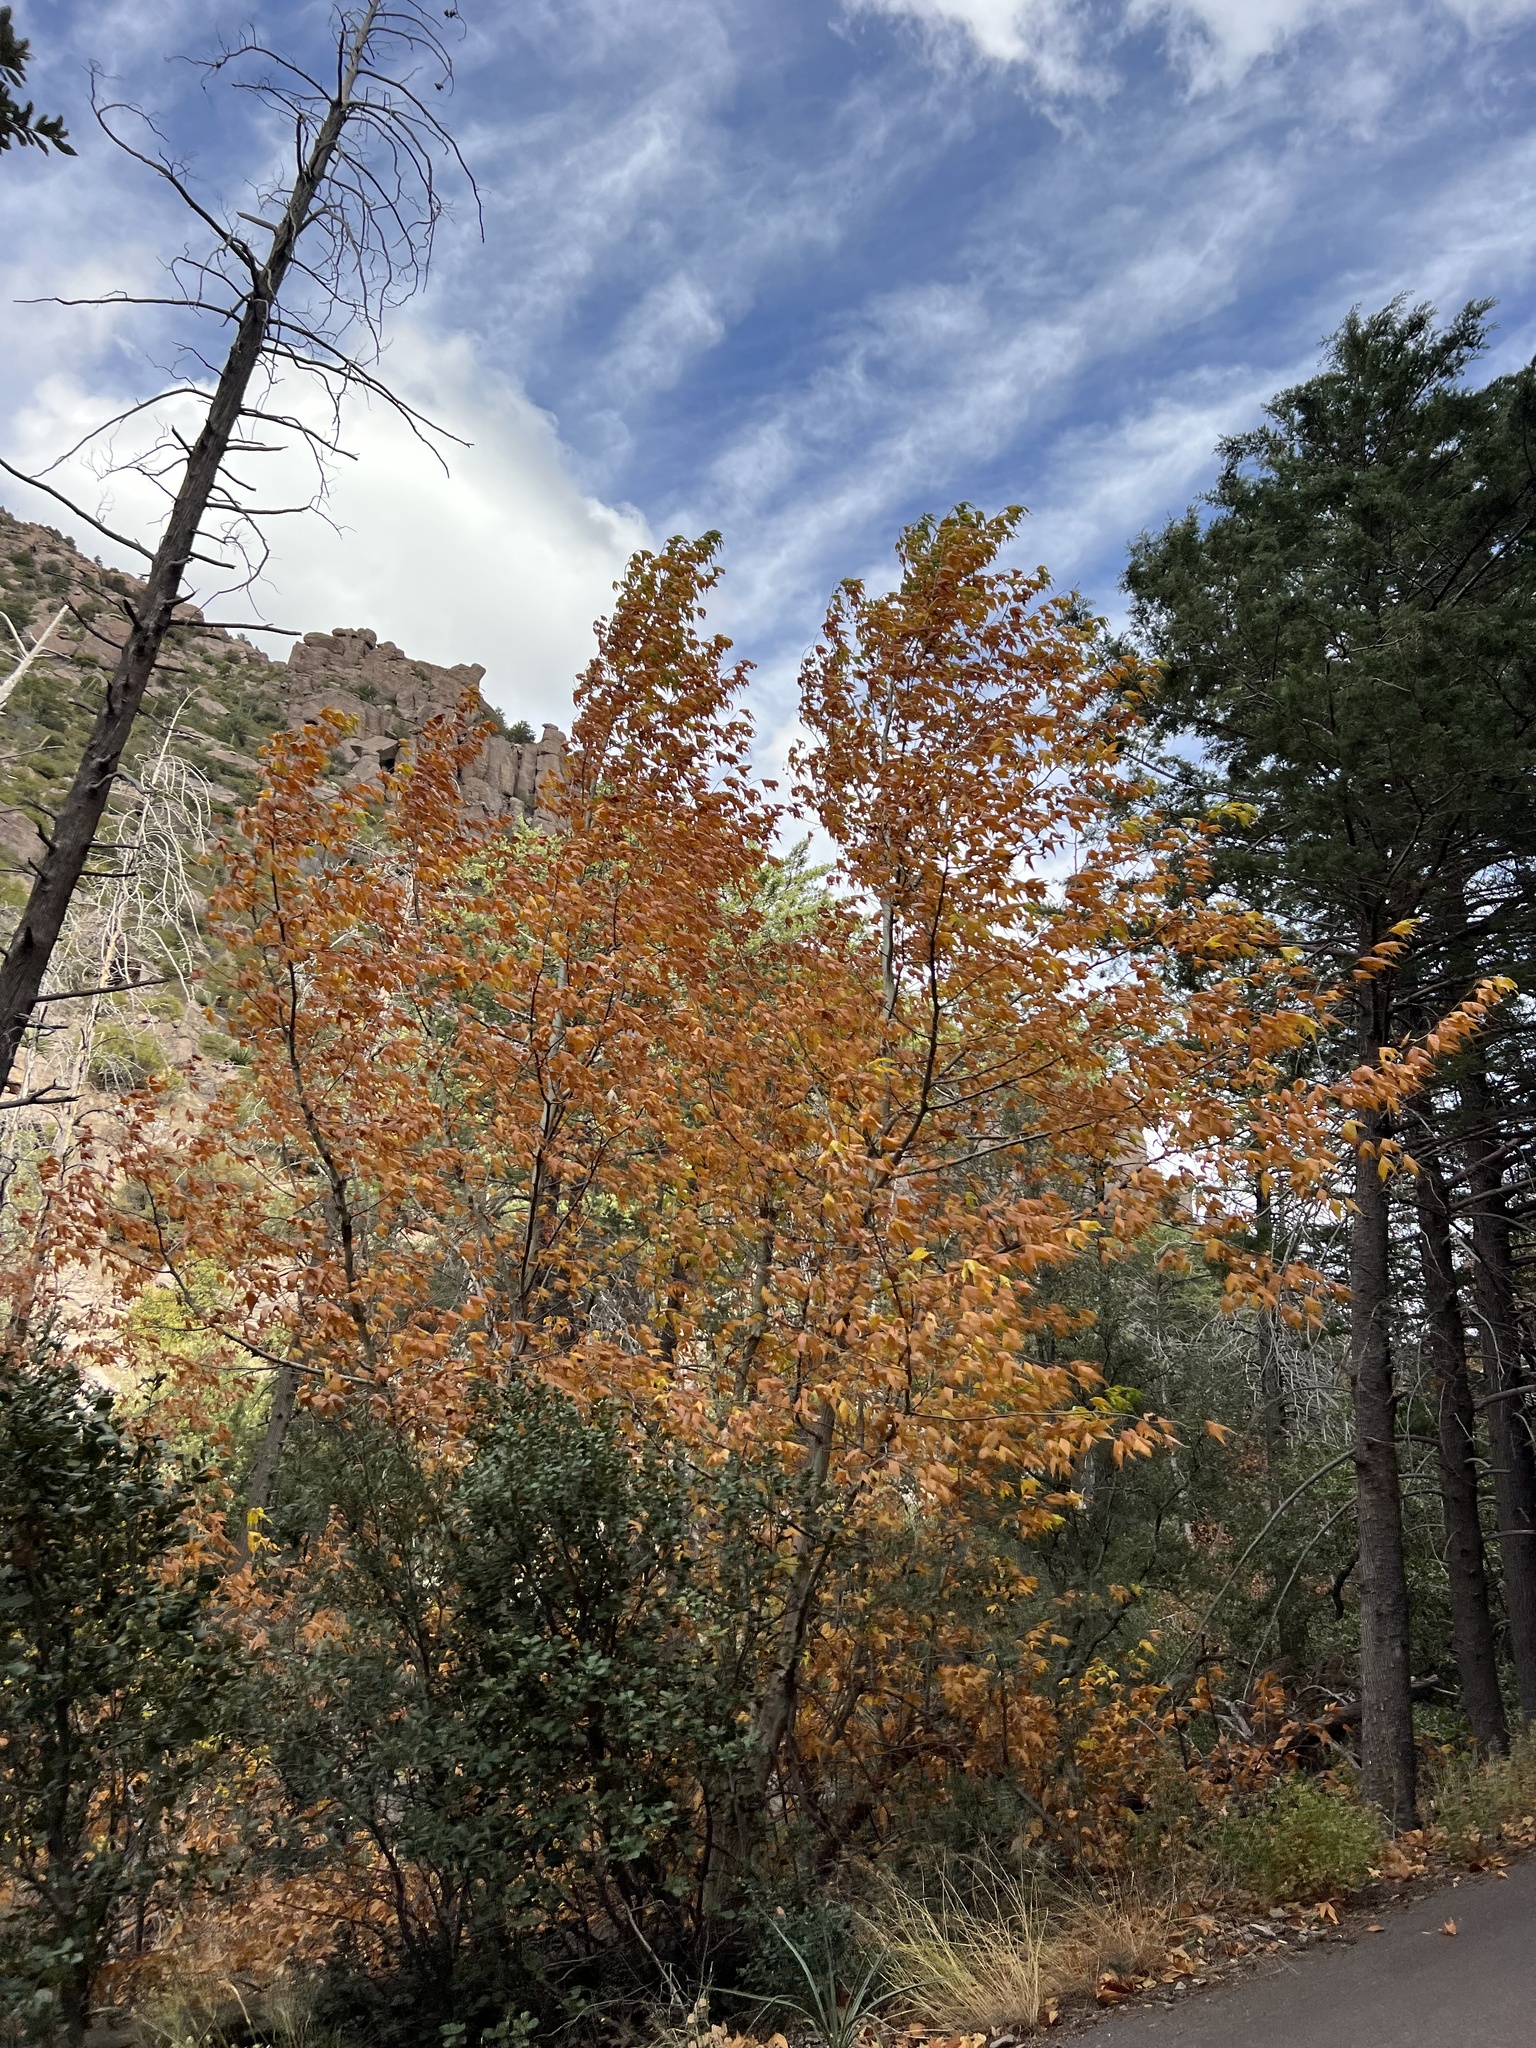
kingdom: Plantae
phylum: Tracheophyta
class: Magnoliopsida
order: Proteales
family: Platanaceae
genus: Platanus
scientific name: Platanus wrightii
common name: Arizona sycamore
